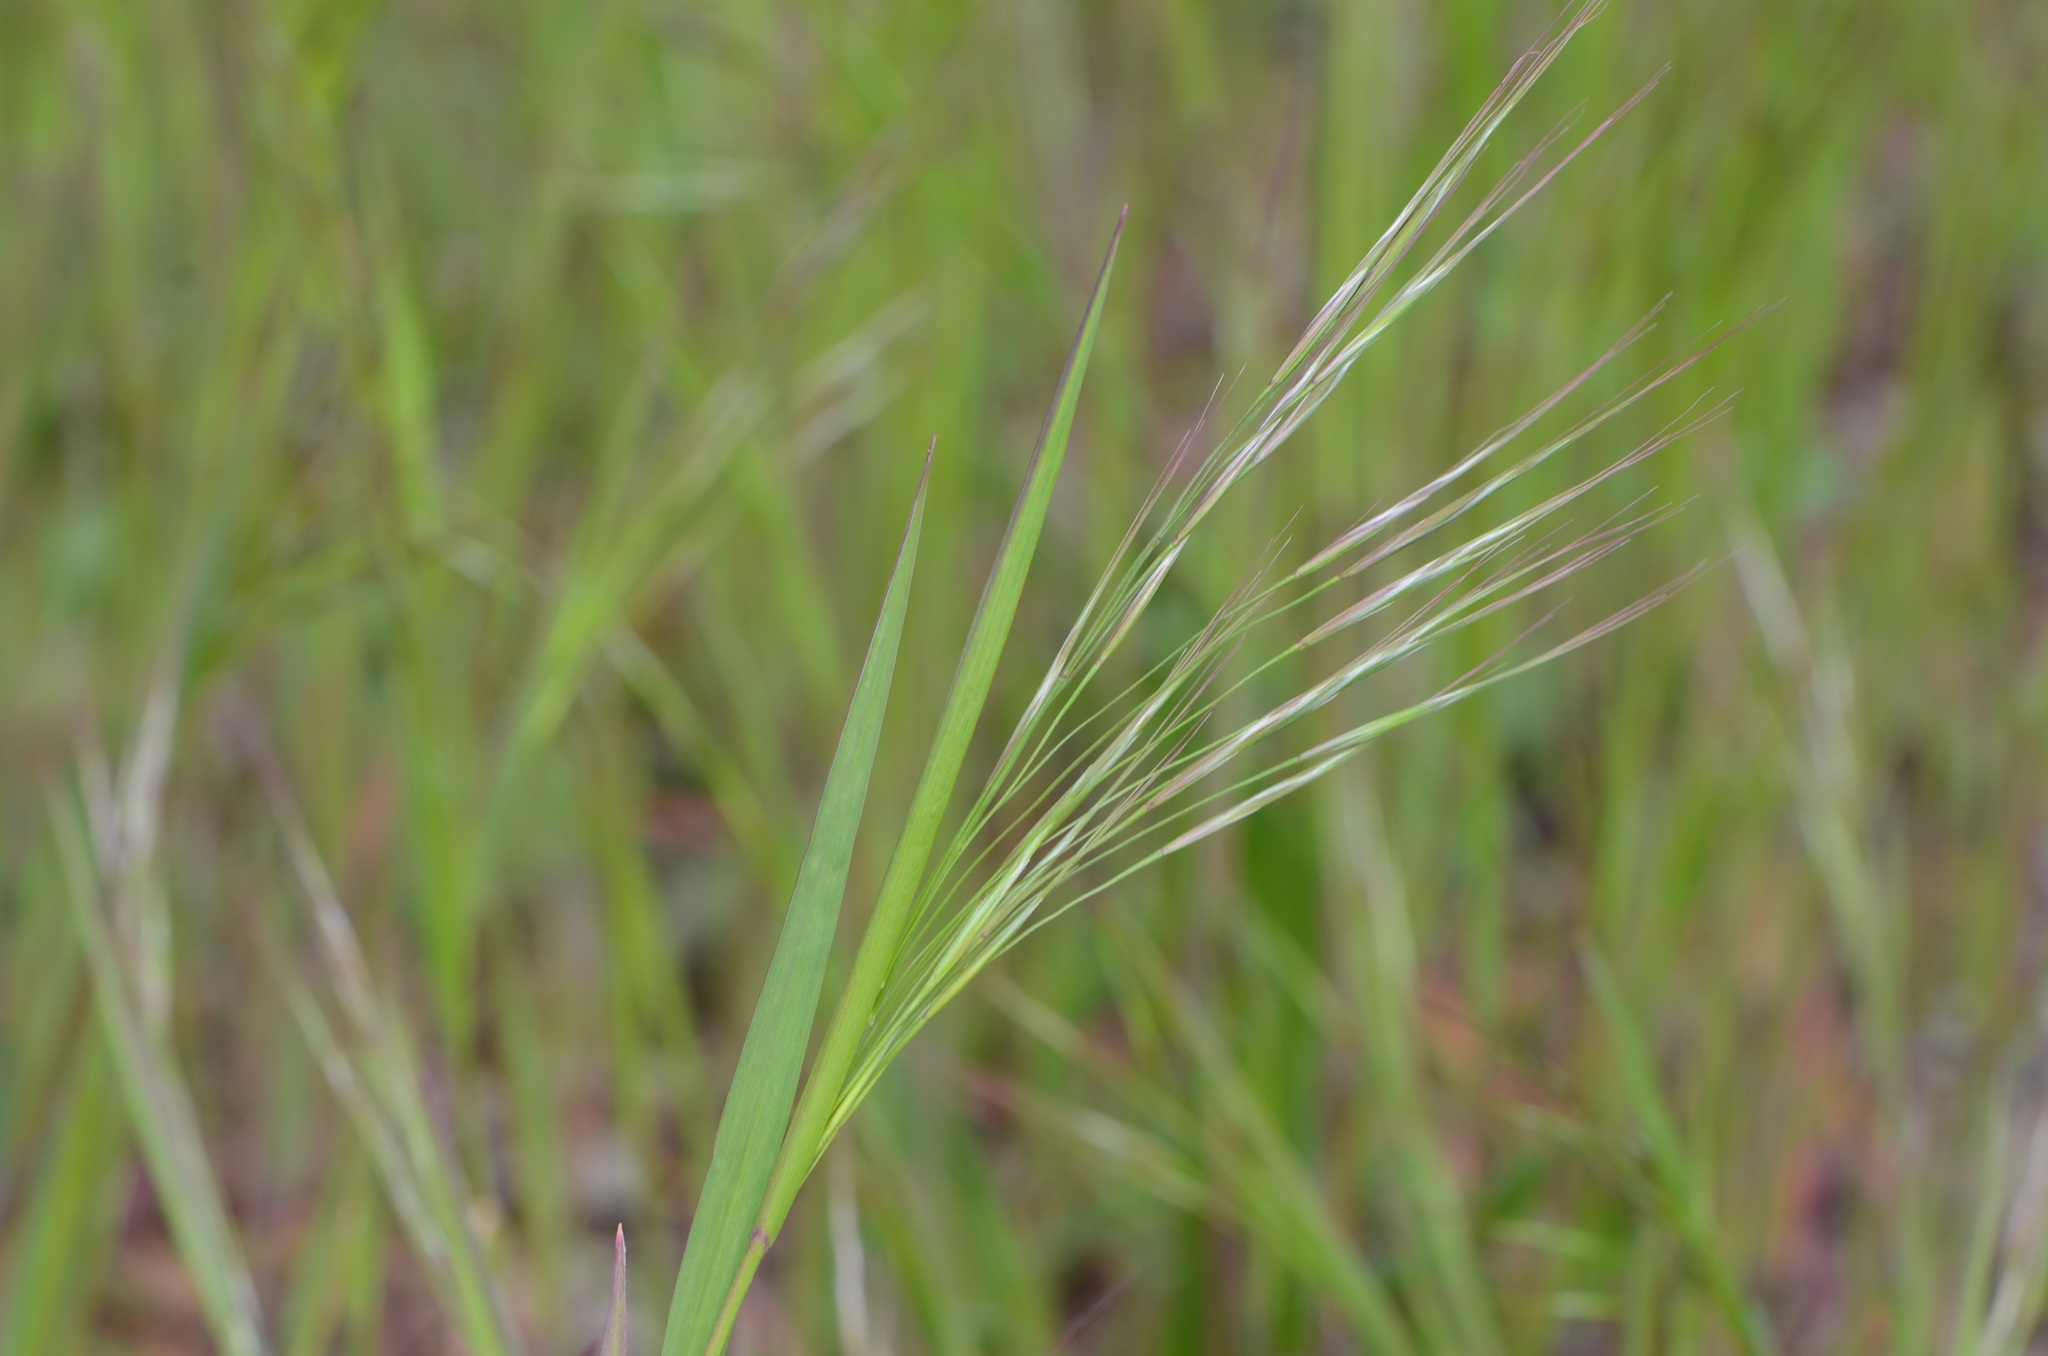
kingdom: Plantae
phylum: Tracheophyta
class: Liliopsida
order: Poales
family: Poaceae
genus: Bromus
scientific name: Bromus sterilis
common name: Poverty brome
